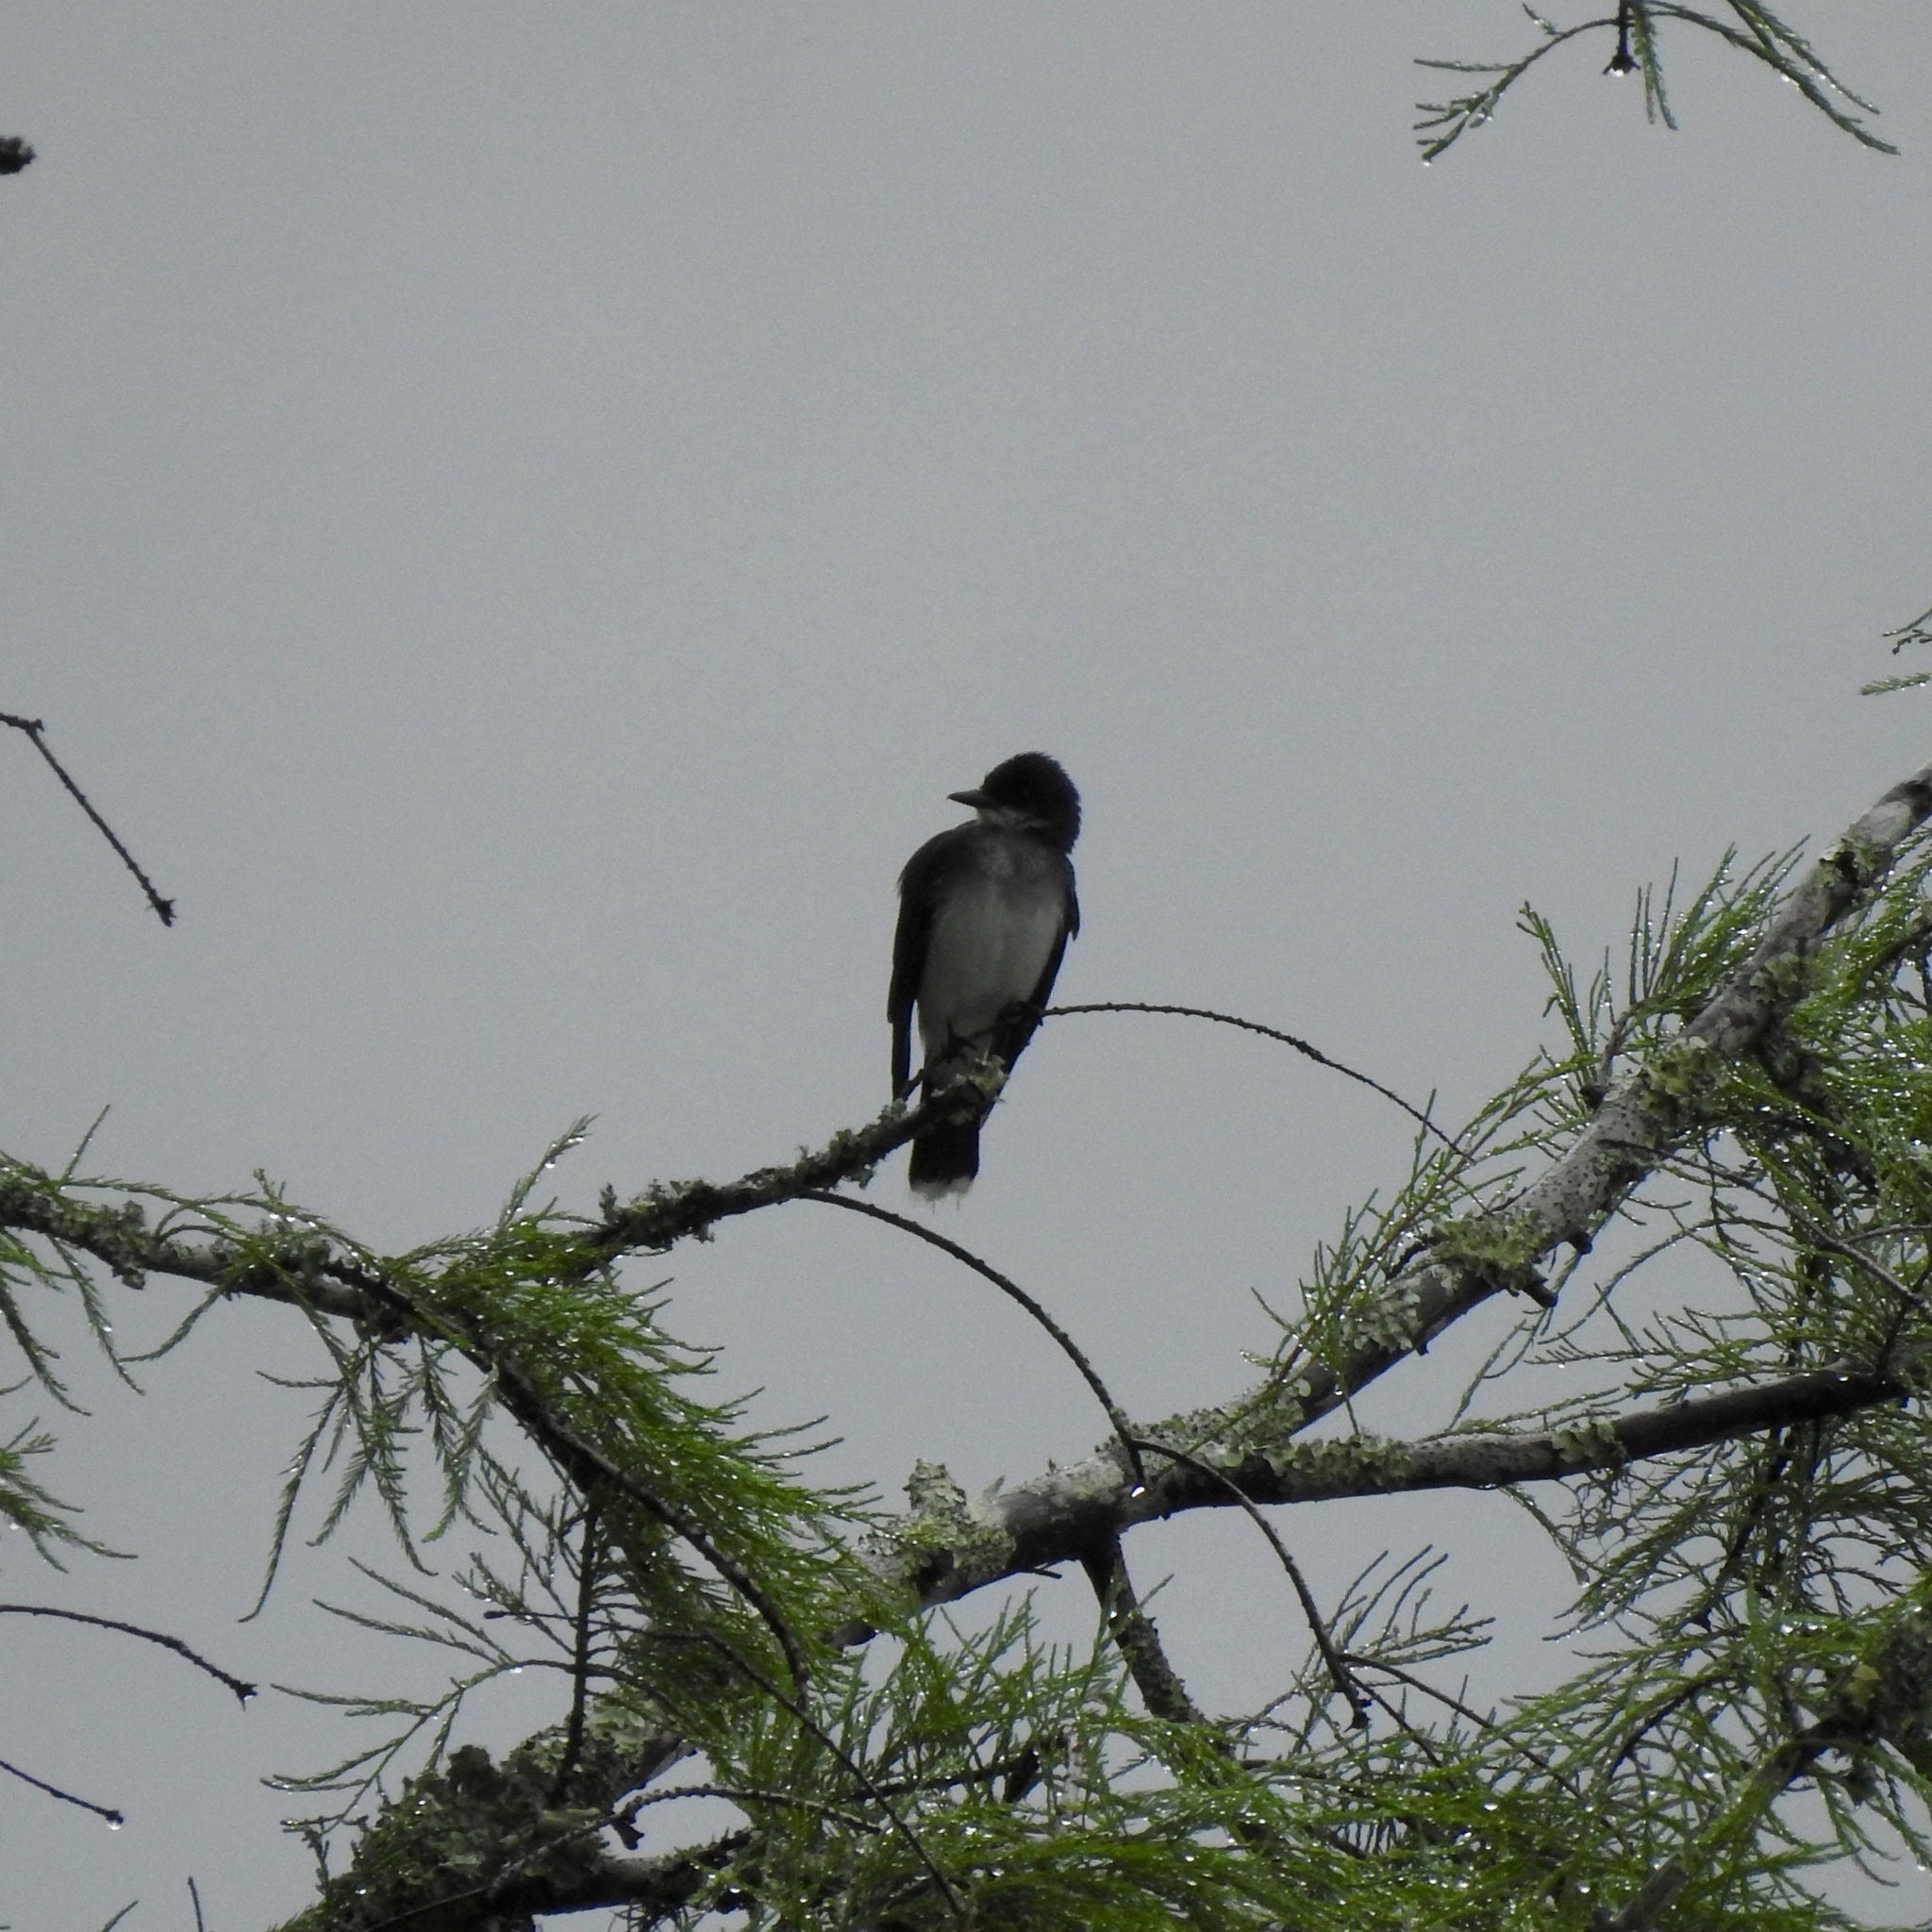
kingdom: Animalia
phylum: Chordata
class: Aves
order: Passeriformes
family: Tyrannidae
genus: Tyrannus
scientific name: Tyrannus tyrannus
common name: Eastern kingbird
